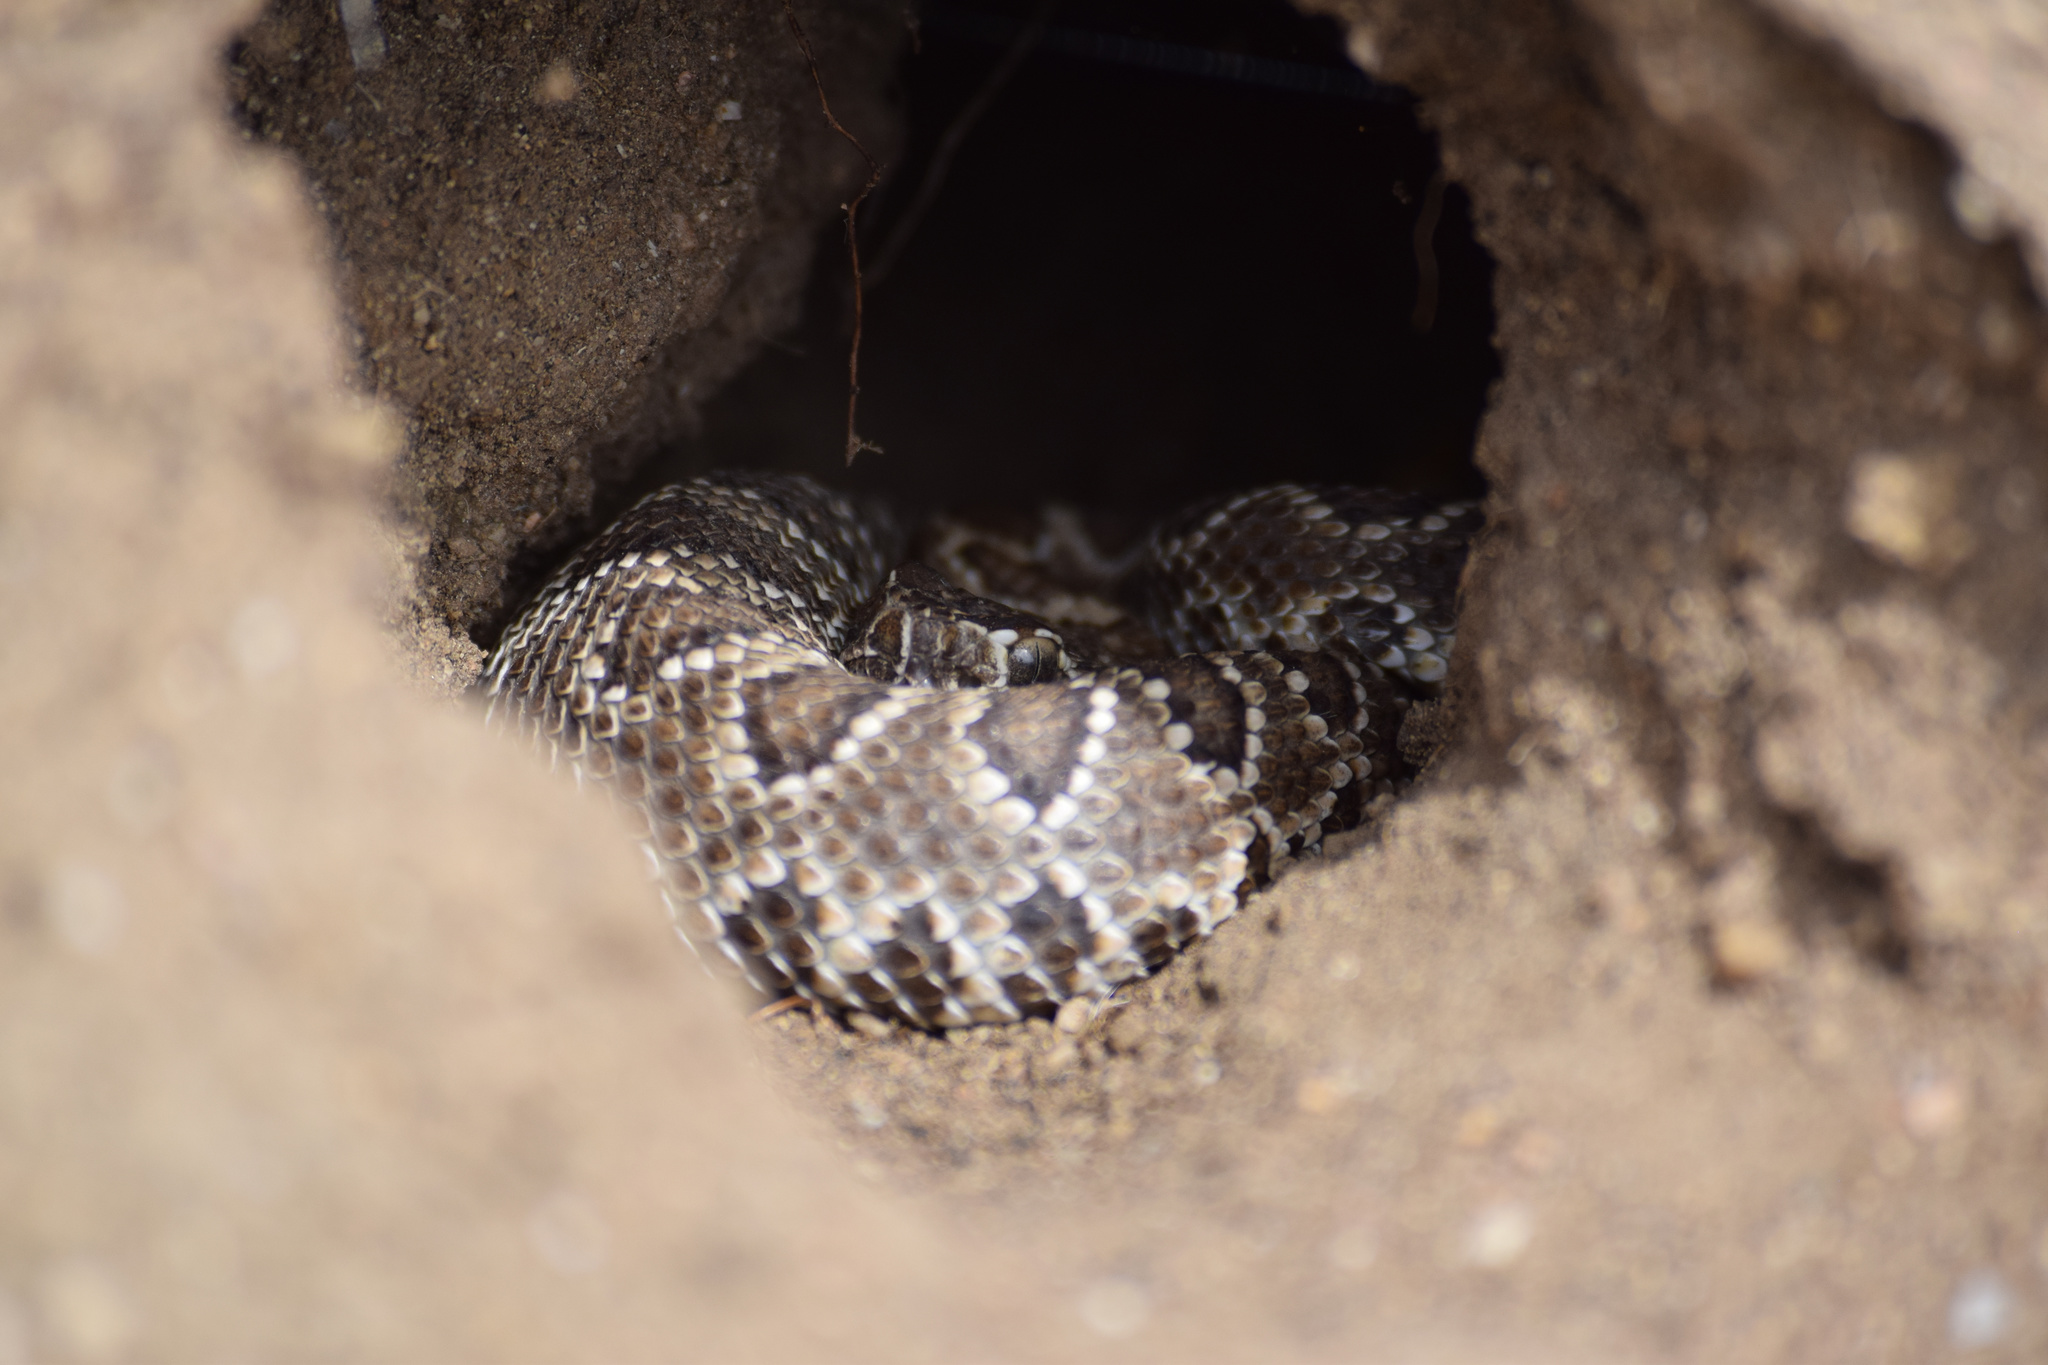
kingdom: Animalia
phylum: Chordata
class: Squamata
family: Viperidae
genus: Crotalus
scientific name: Crotalus scutulatus
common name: Scutulatus
